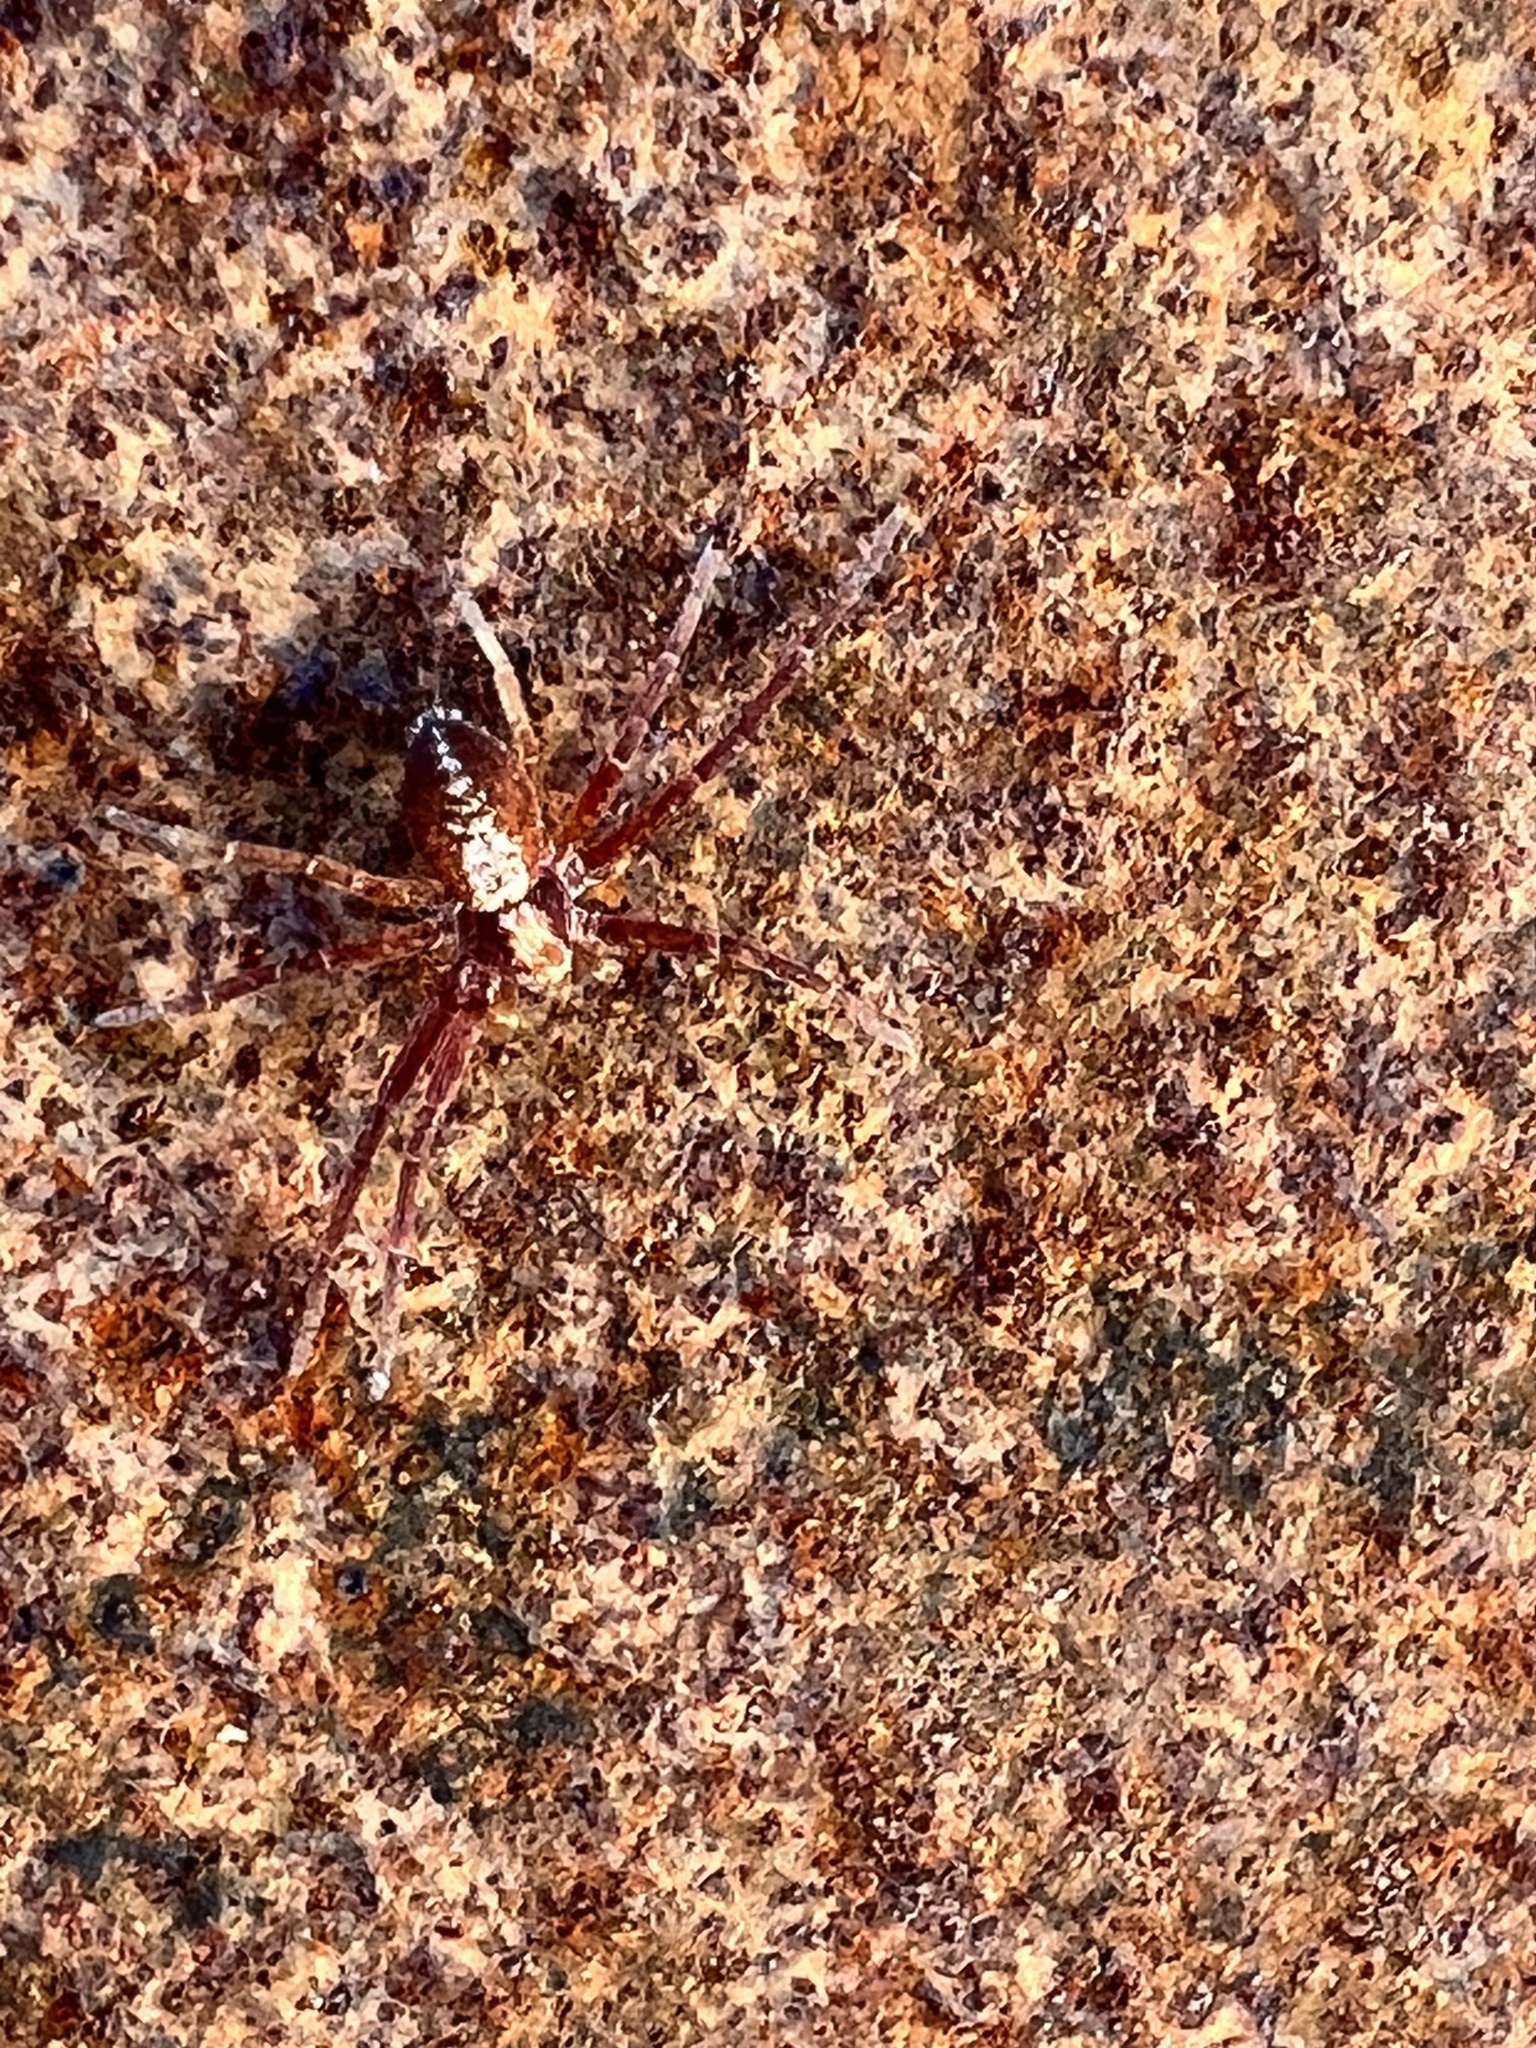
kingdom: Animalia
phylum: Arthropoda
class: Arachnida
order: Araneae
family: Philodromidae
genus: Philodromus
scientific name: Philodromus rufus
